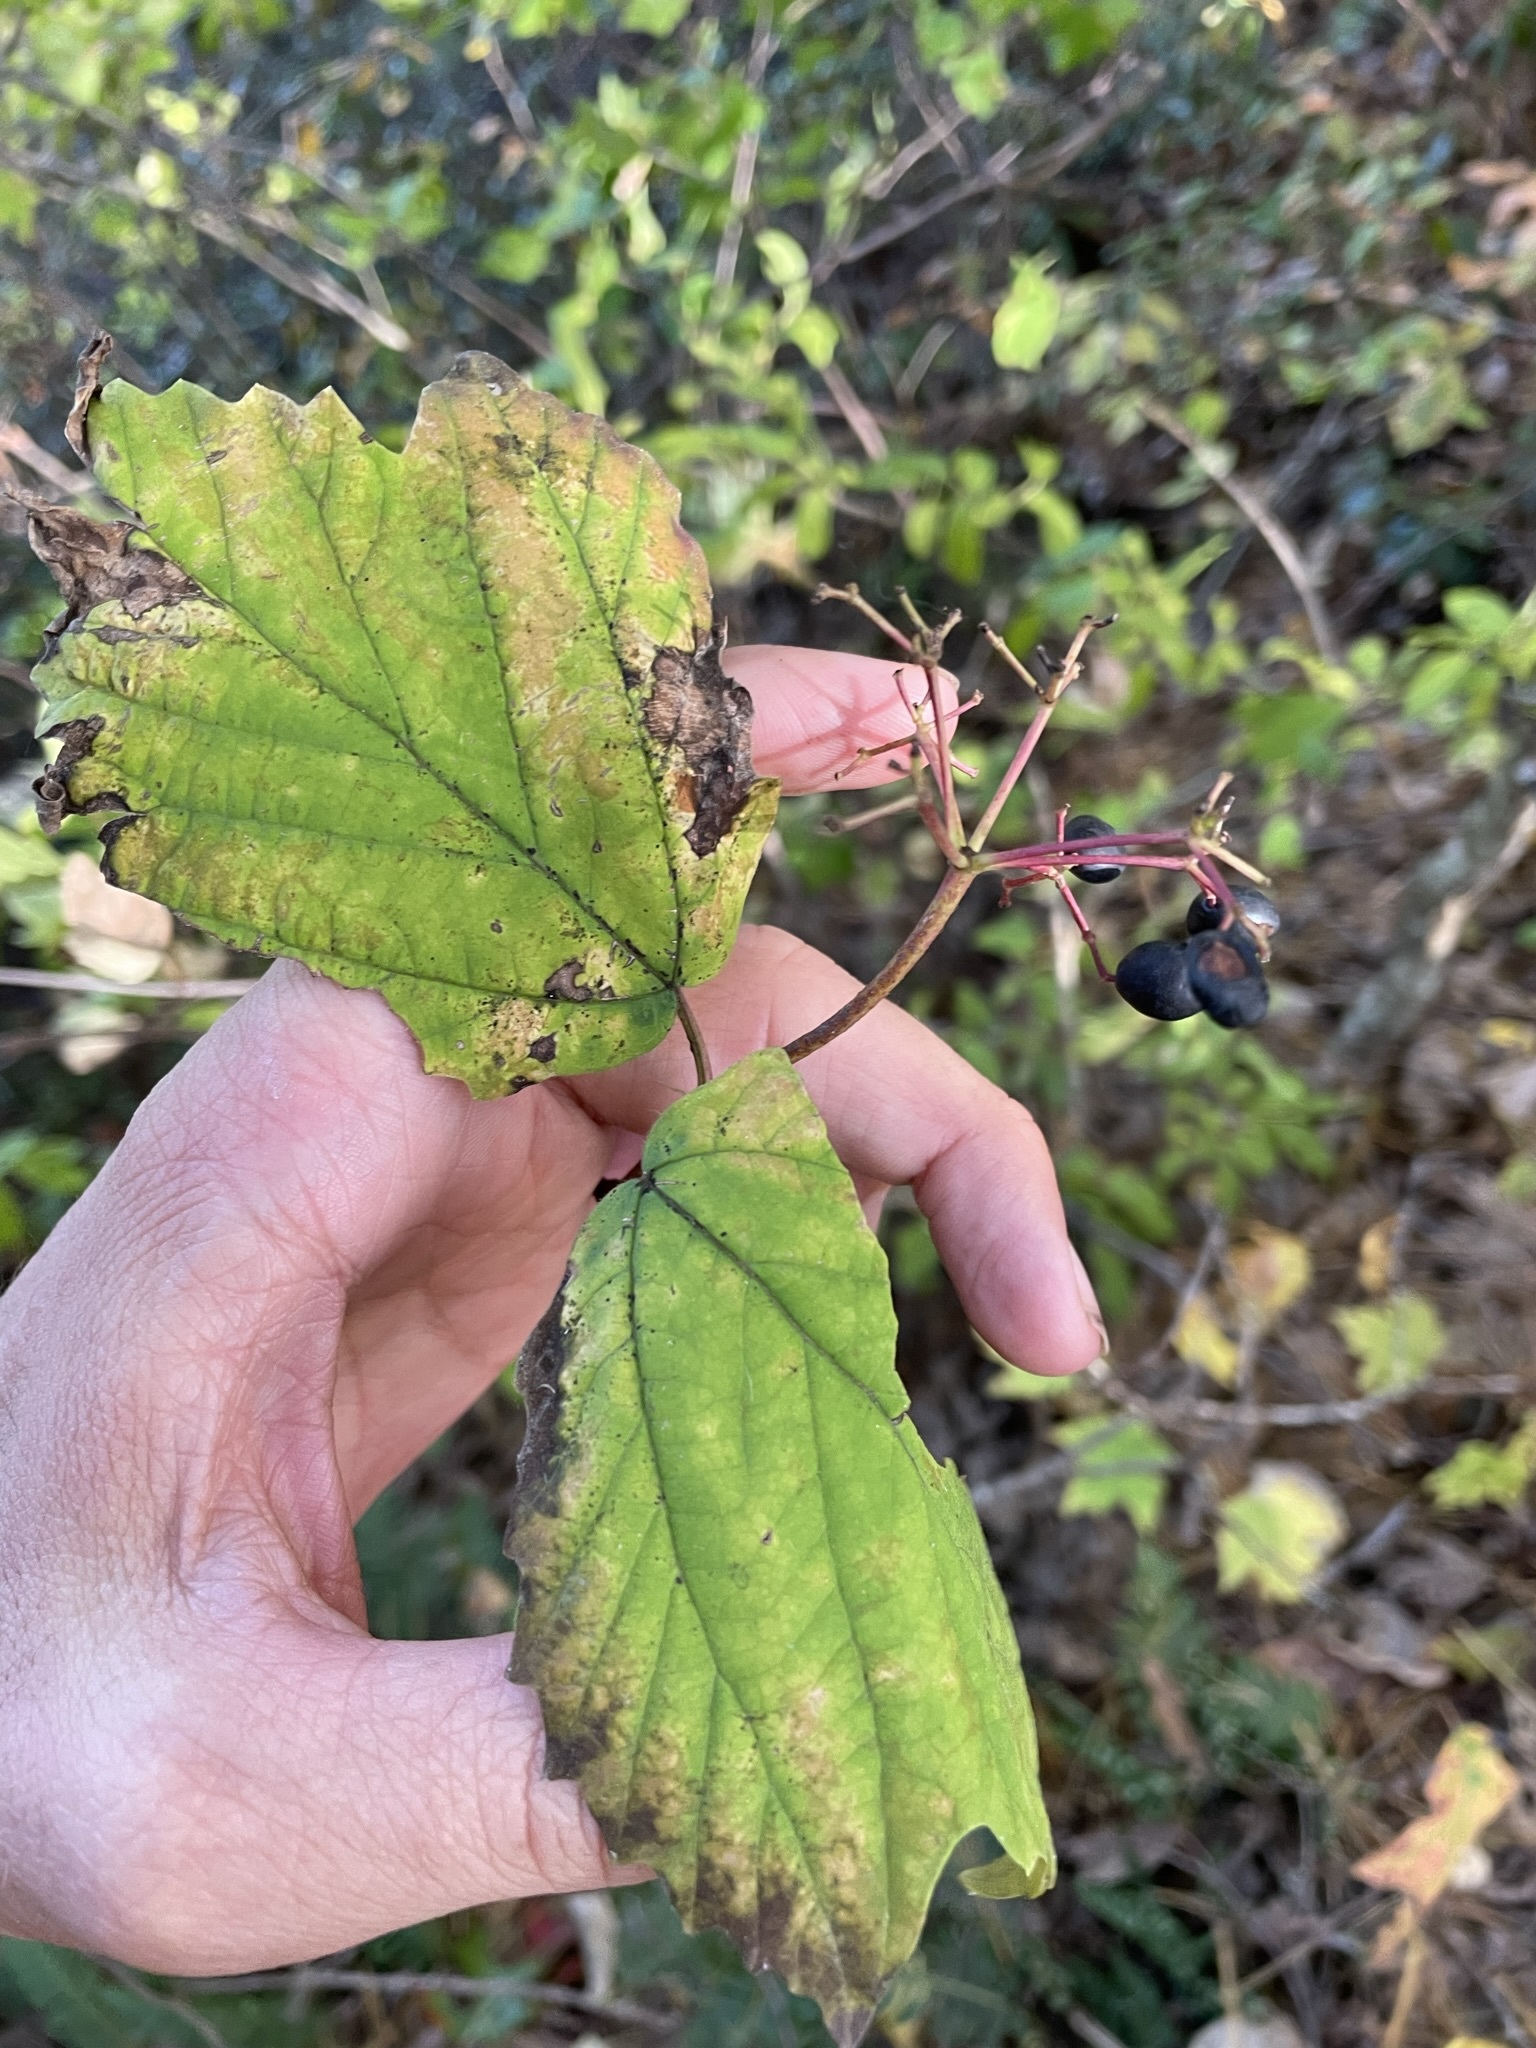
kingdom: Plantae
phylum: Tracheophyta
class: Magnoliopsida
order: Dipsacales
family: Viburnaceae
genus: Viburnum
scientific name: Viburnum acerifolium
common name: Dockmackie
